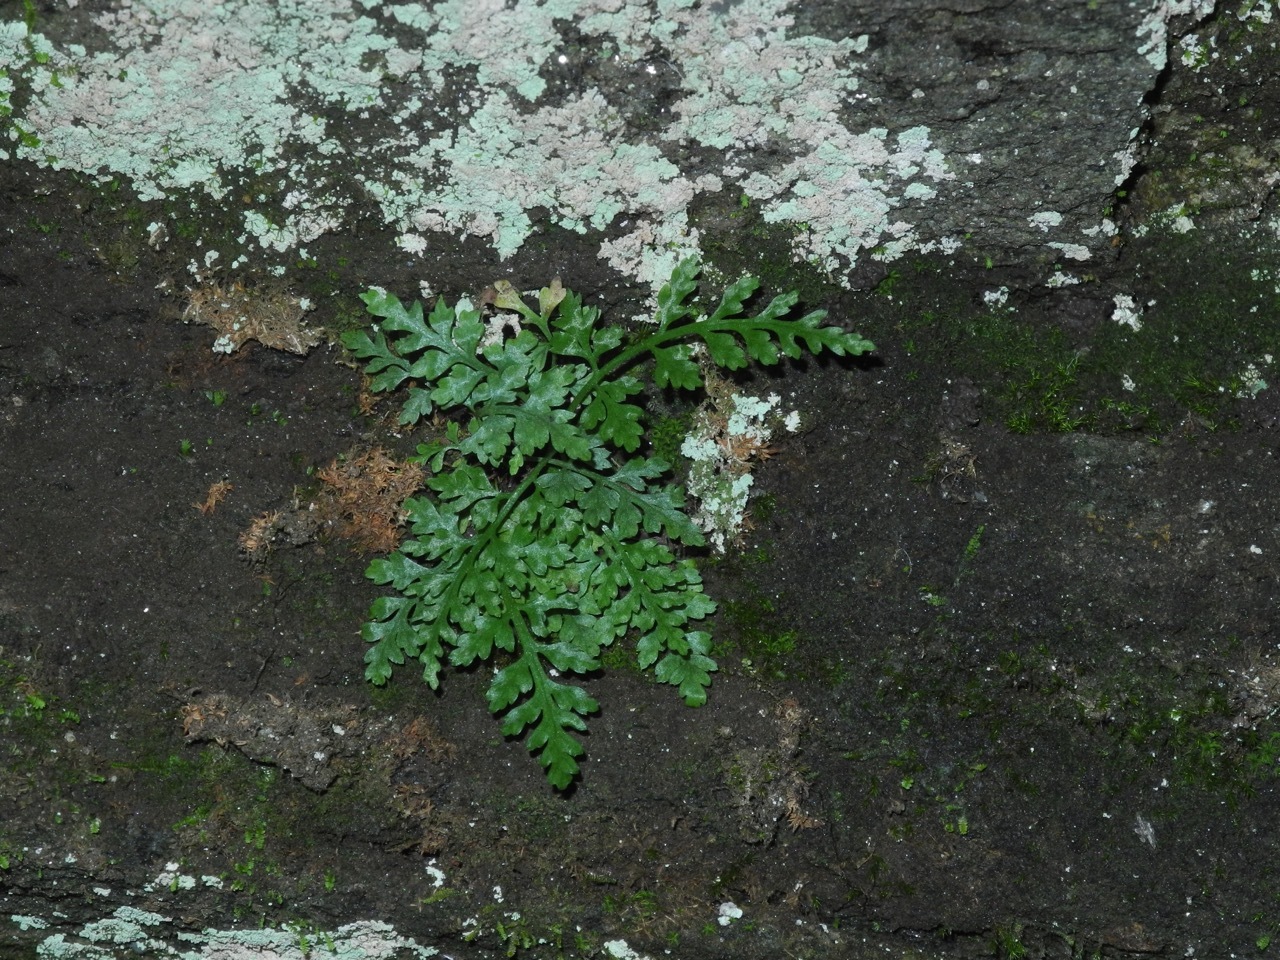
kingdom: Plantae
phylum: Tracheophyta
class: Polypodiopsida
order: Polypodiales
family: Aspleniaceae
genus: Asplenium
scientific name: Asplenium montanum
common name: Mountain spleenwort
